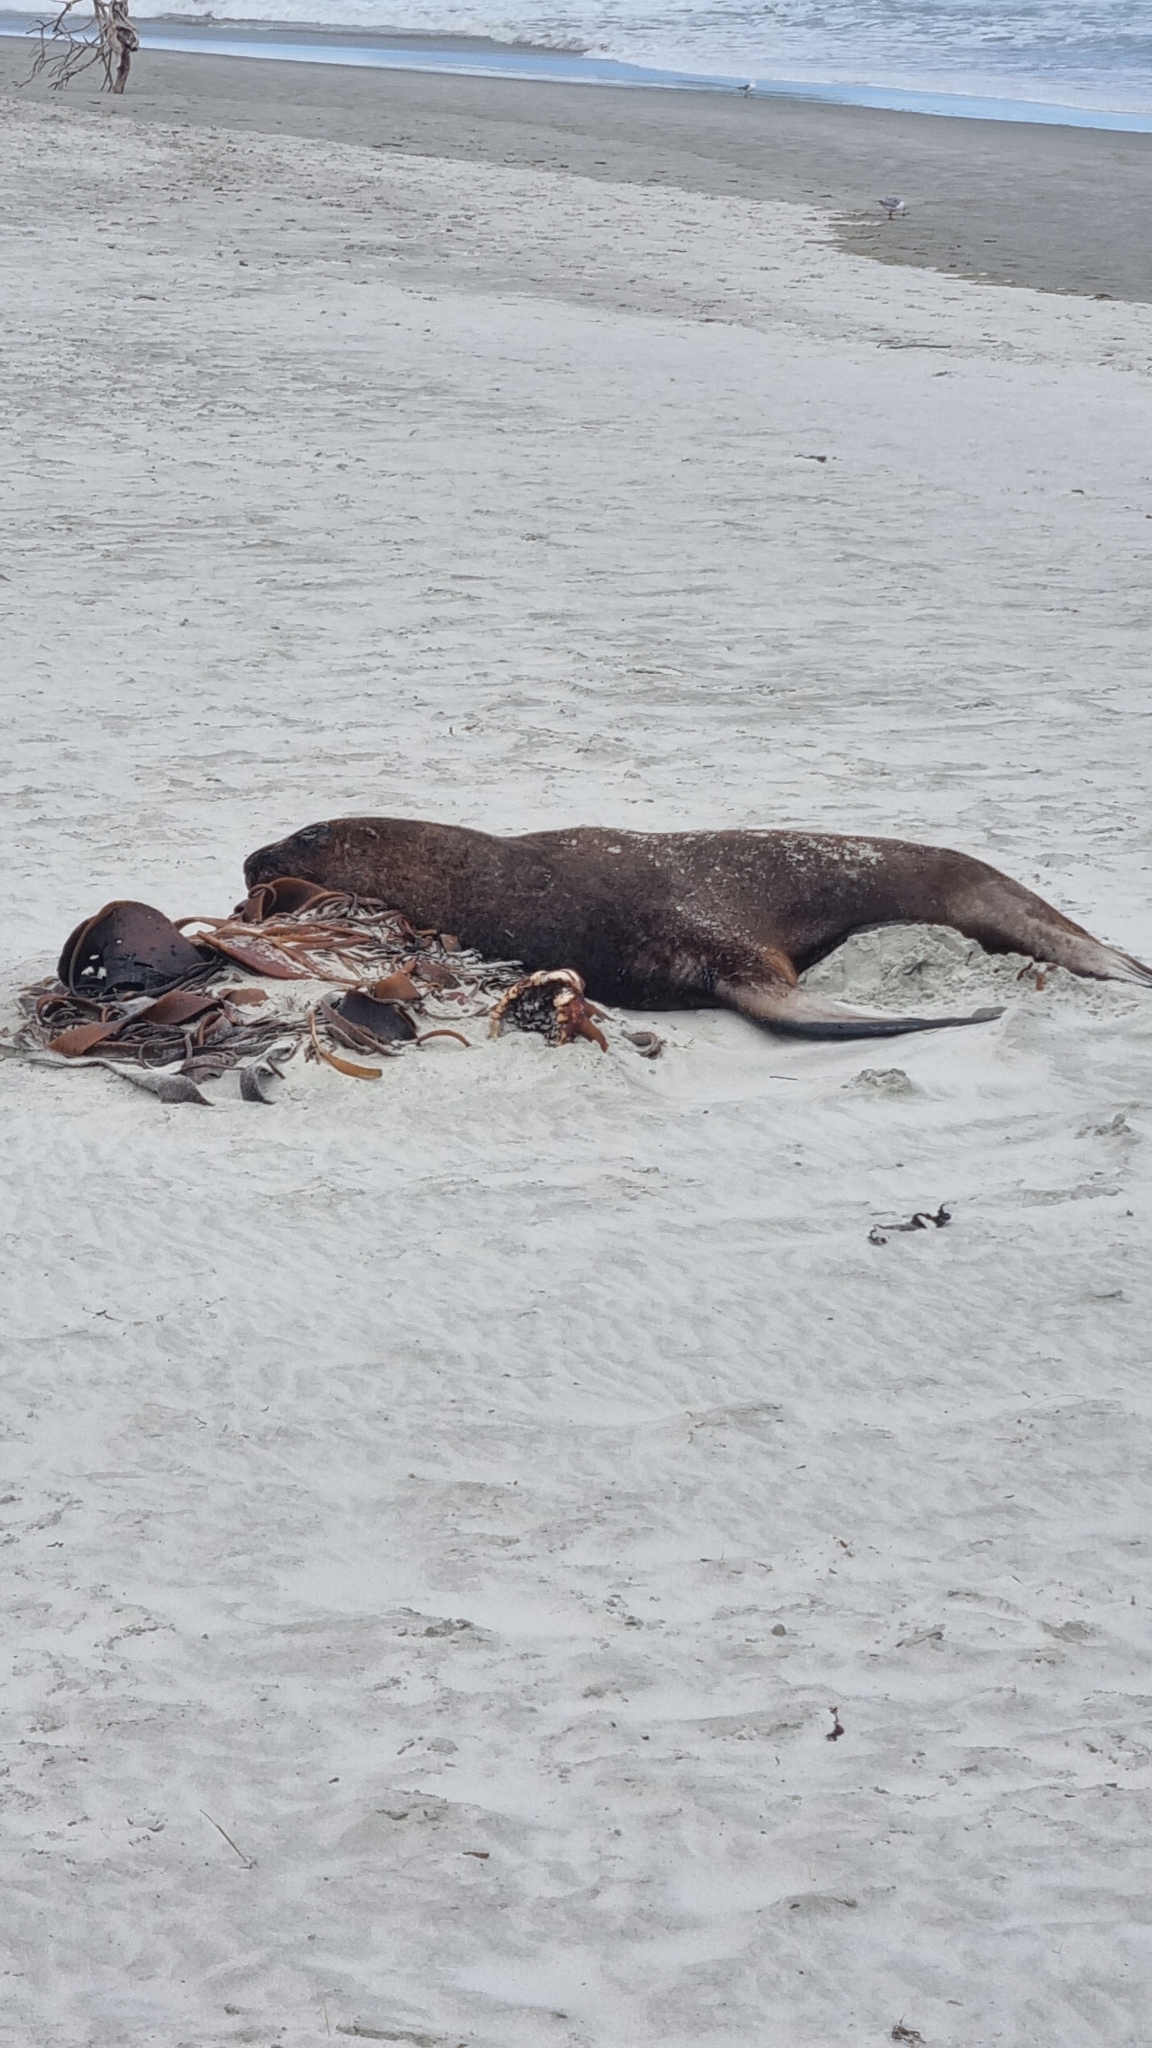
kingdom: Animalia
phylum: Chordata
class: Mammalia
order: Carnivora
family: Otariidae
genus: Phocarctos
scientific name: Phocarctos hookeri
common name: New zealand sea lion
